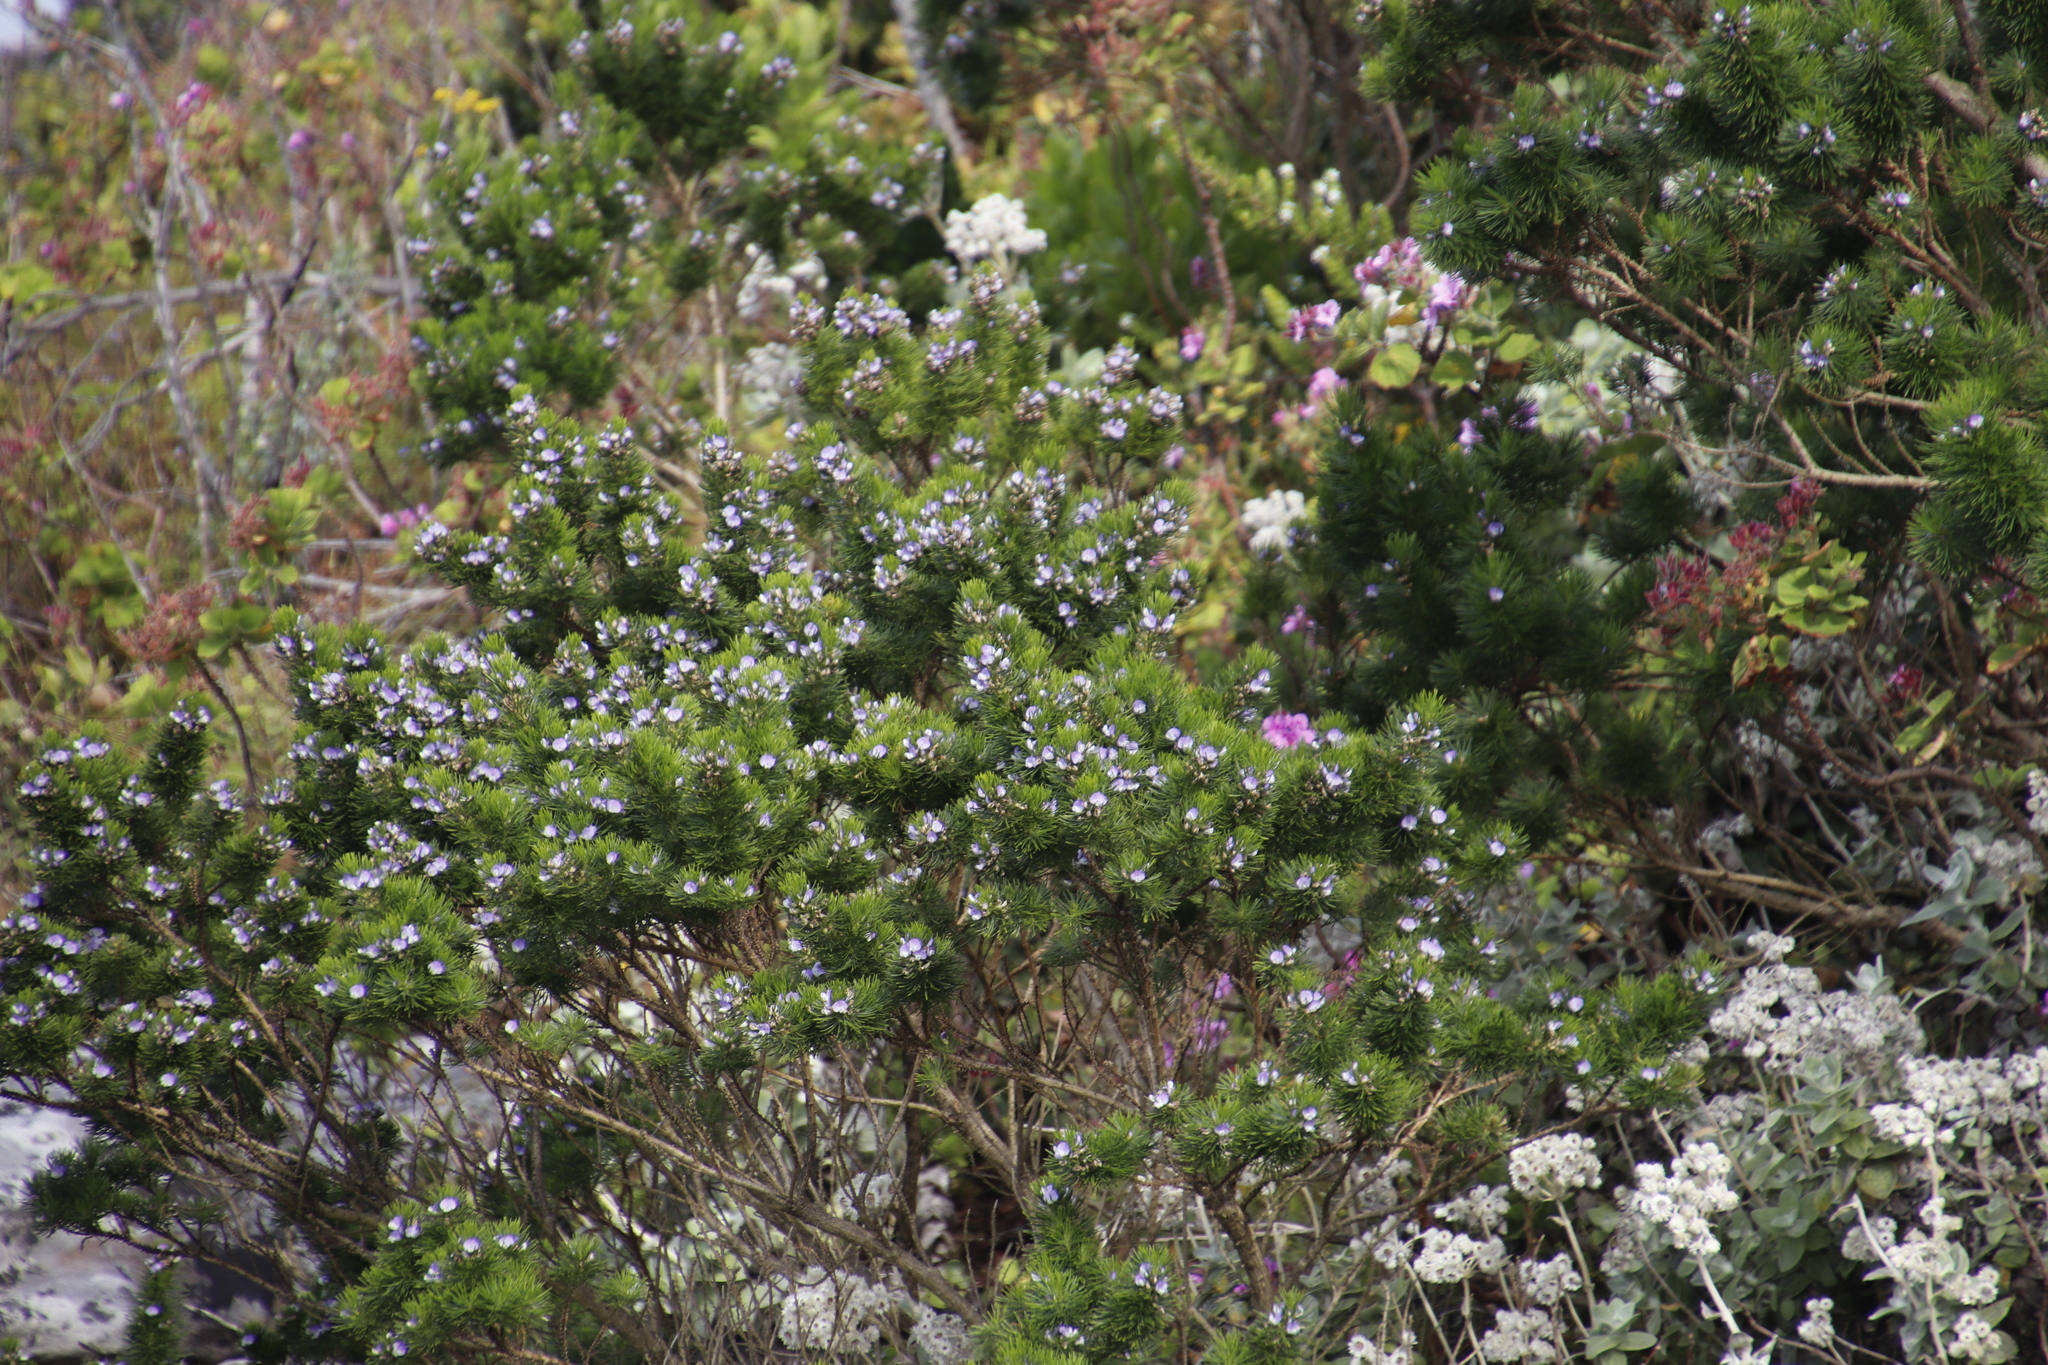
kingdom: Plantae
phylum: Tracheophyta
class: Magnoliopsida
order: Fabales
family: Fabaceae
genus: Psoralea
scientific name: Psoralea pinnata
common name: African scurfpea
